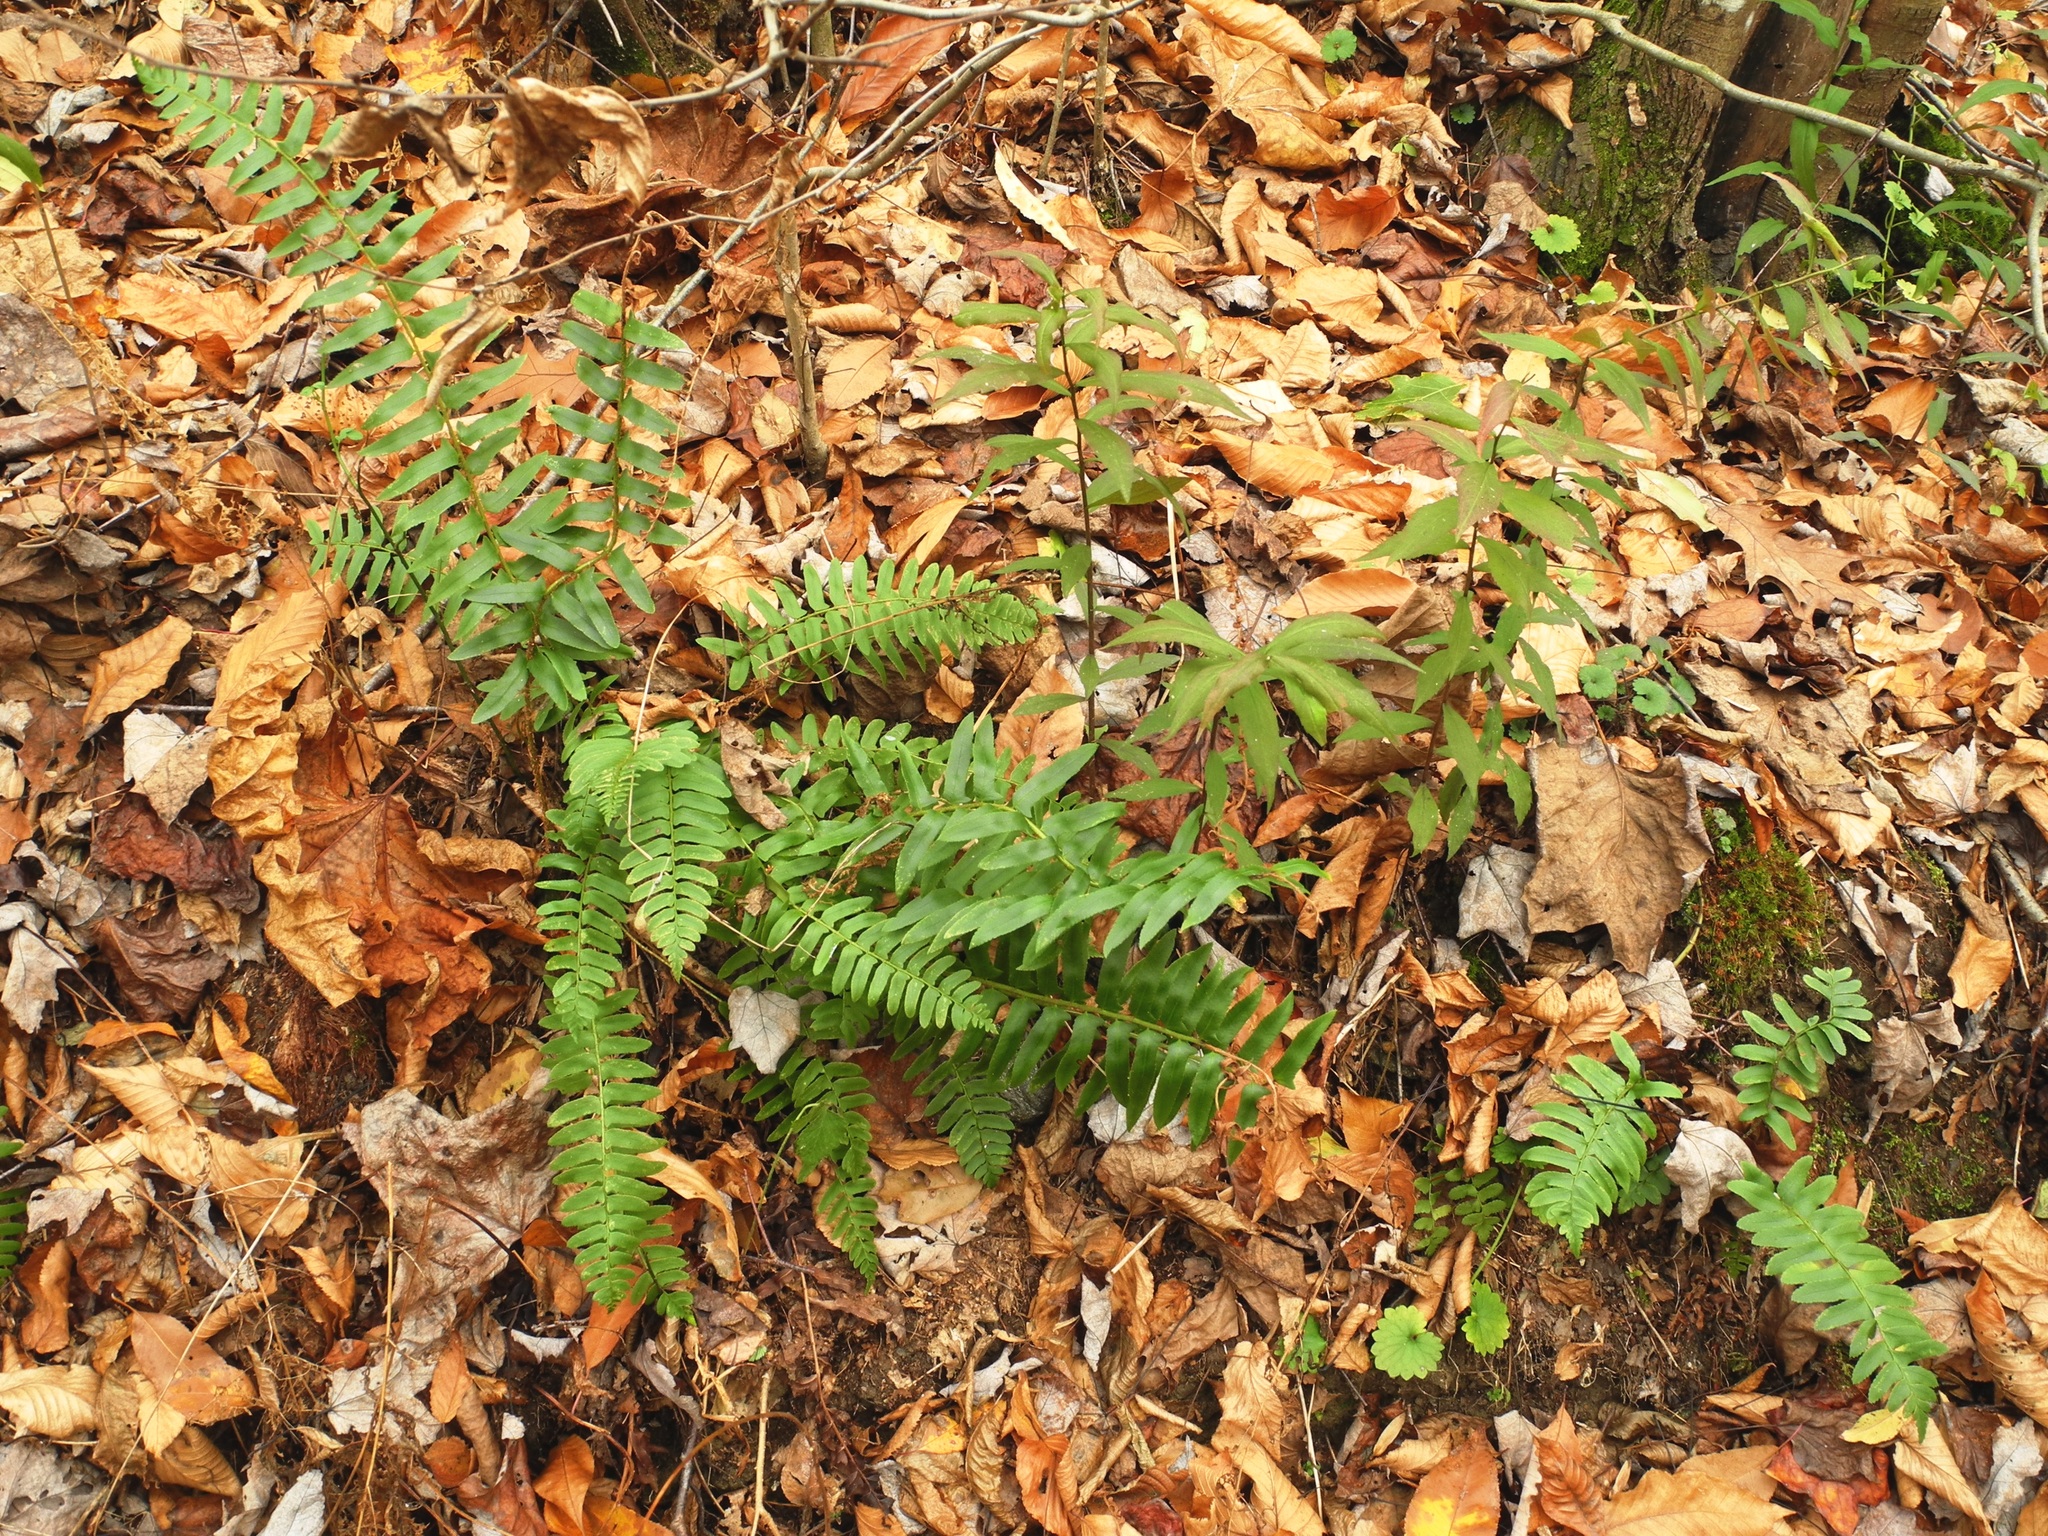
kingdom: Plantae
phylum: Tracheophyta
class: Magnoliopsida
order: Asterales
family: Asteraceae
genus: Solidago
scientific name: Solidago caesia
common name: Woodland goldenrod
